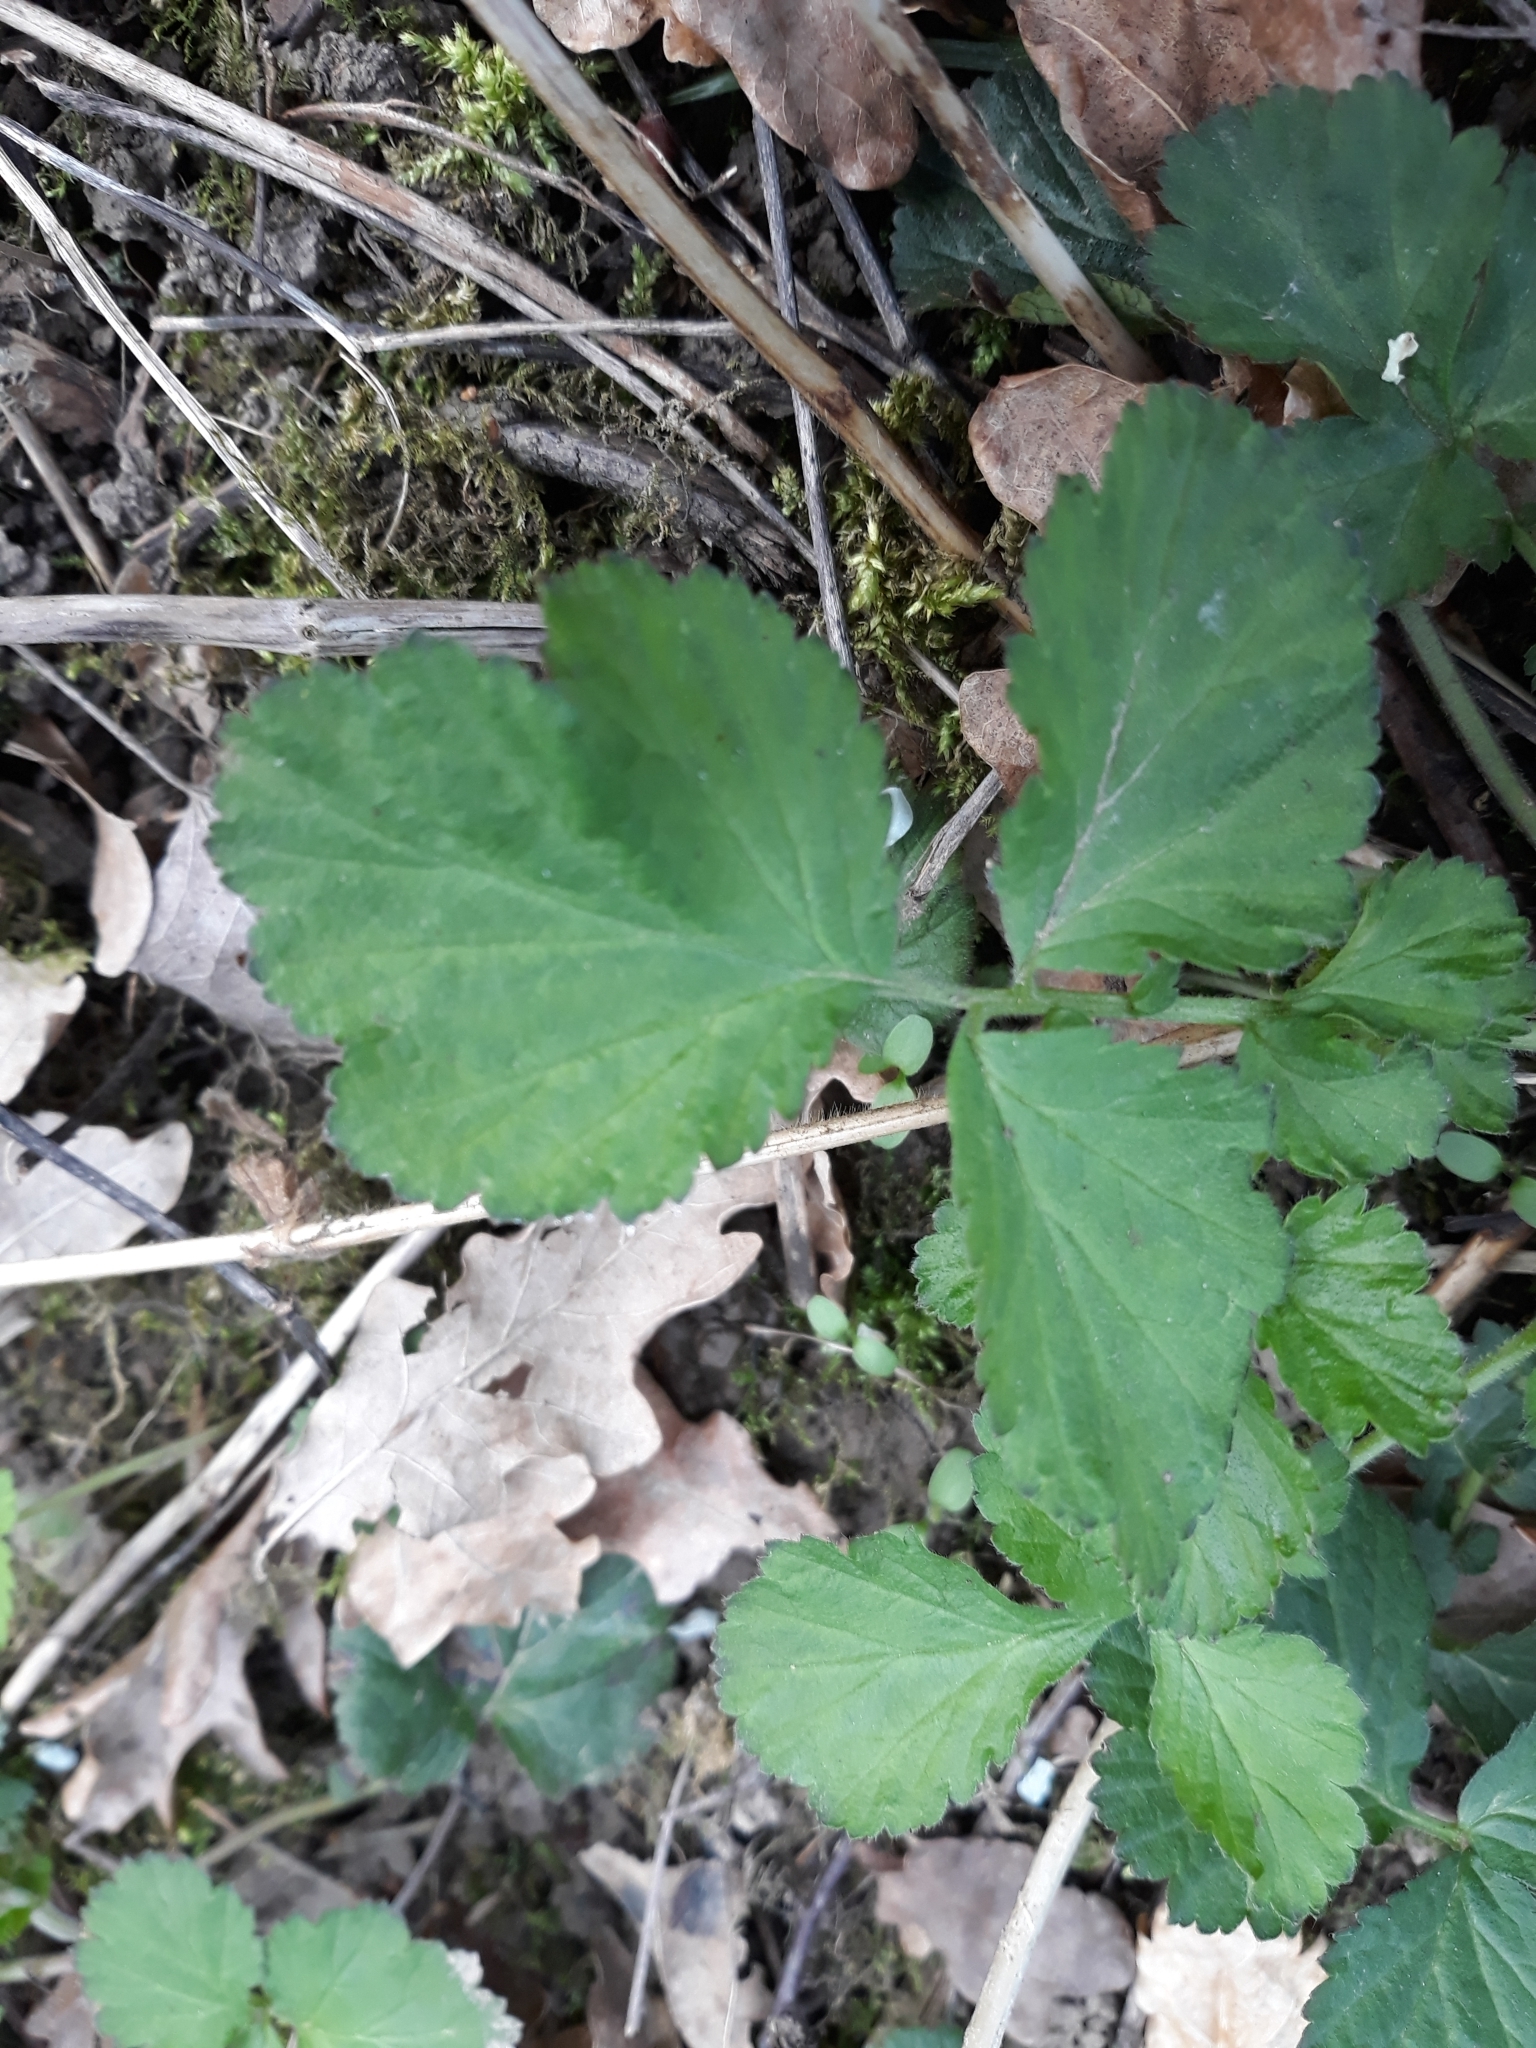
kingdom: Plantae
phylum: Tracheophyta
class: Magnoliopsida
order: Rosales
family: Rosaceae
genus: Geum
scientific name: Geum urbanum
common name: Wood avens
